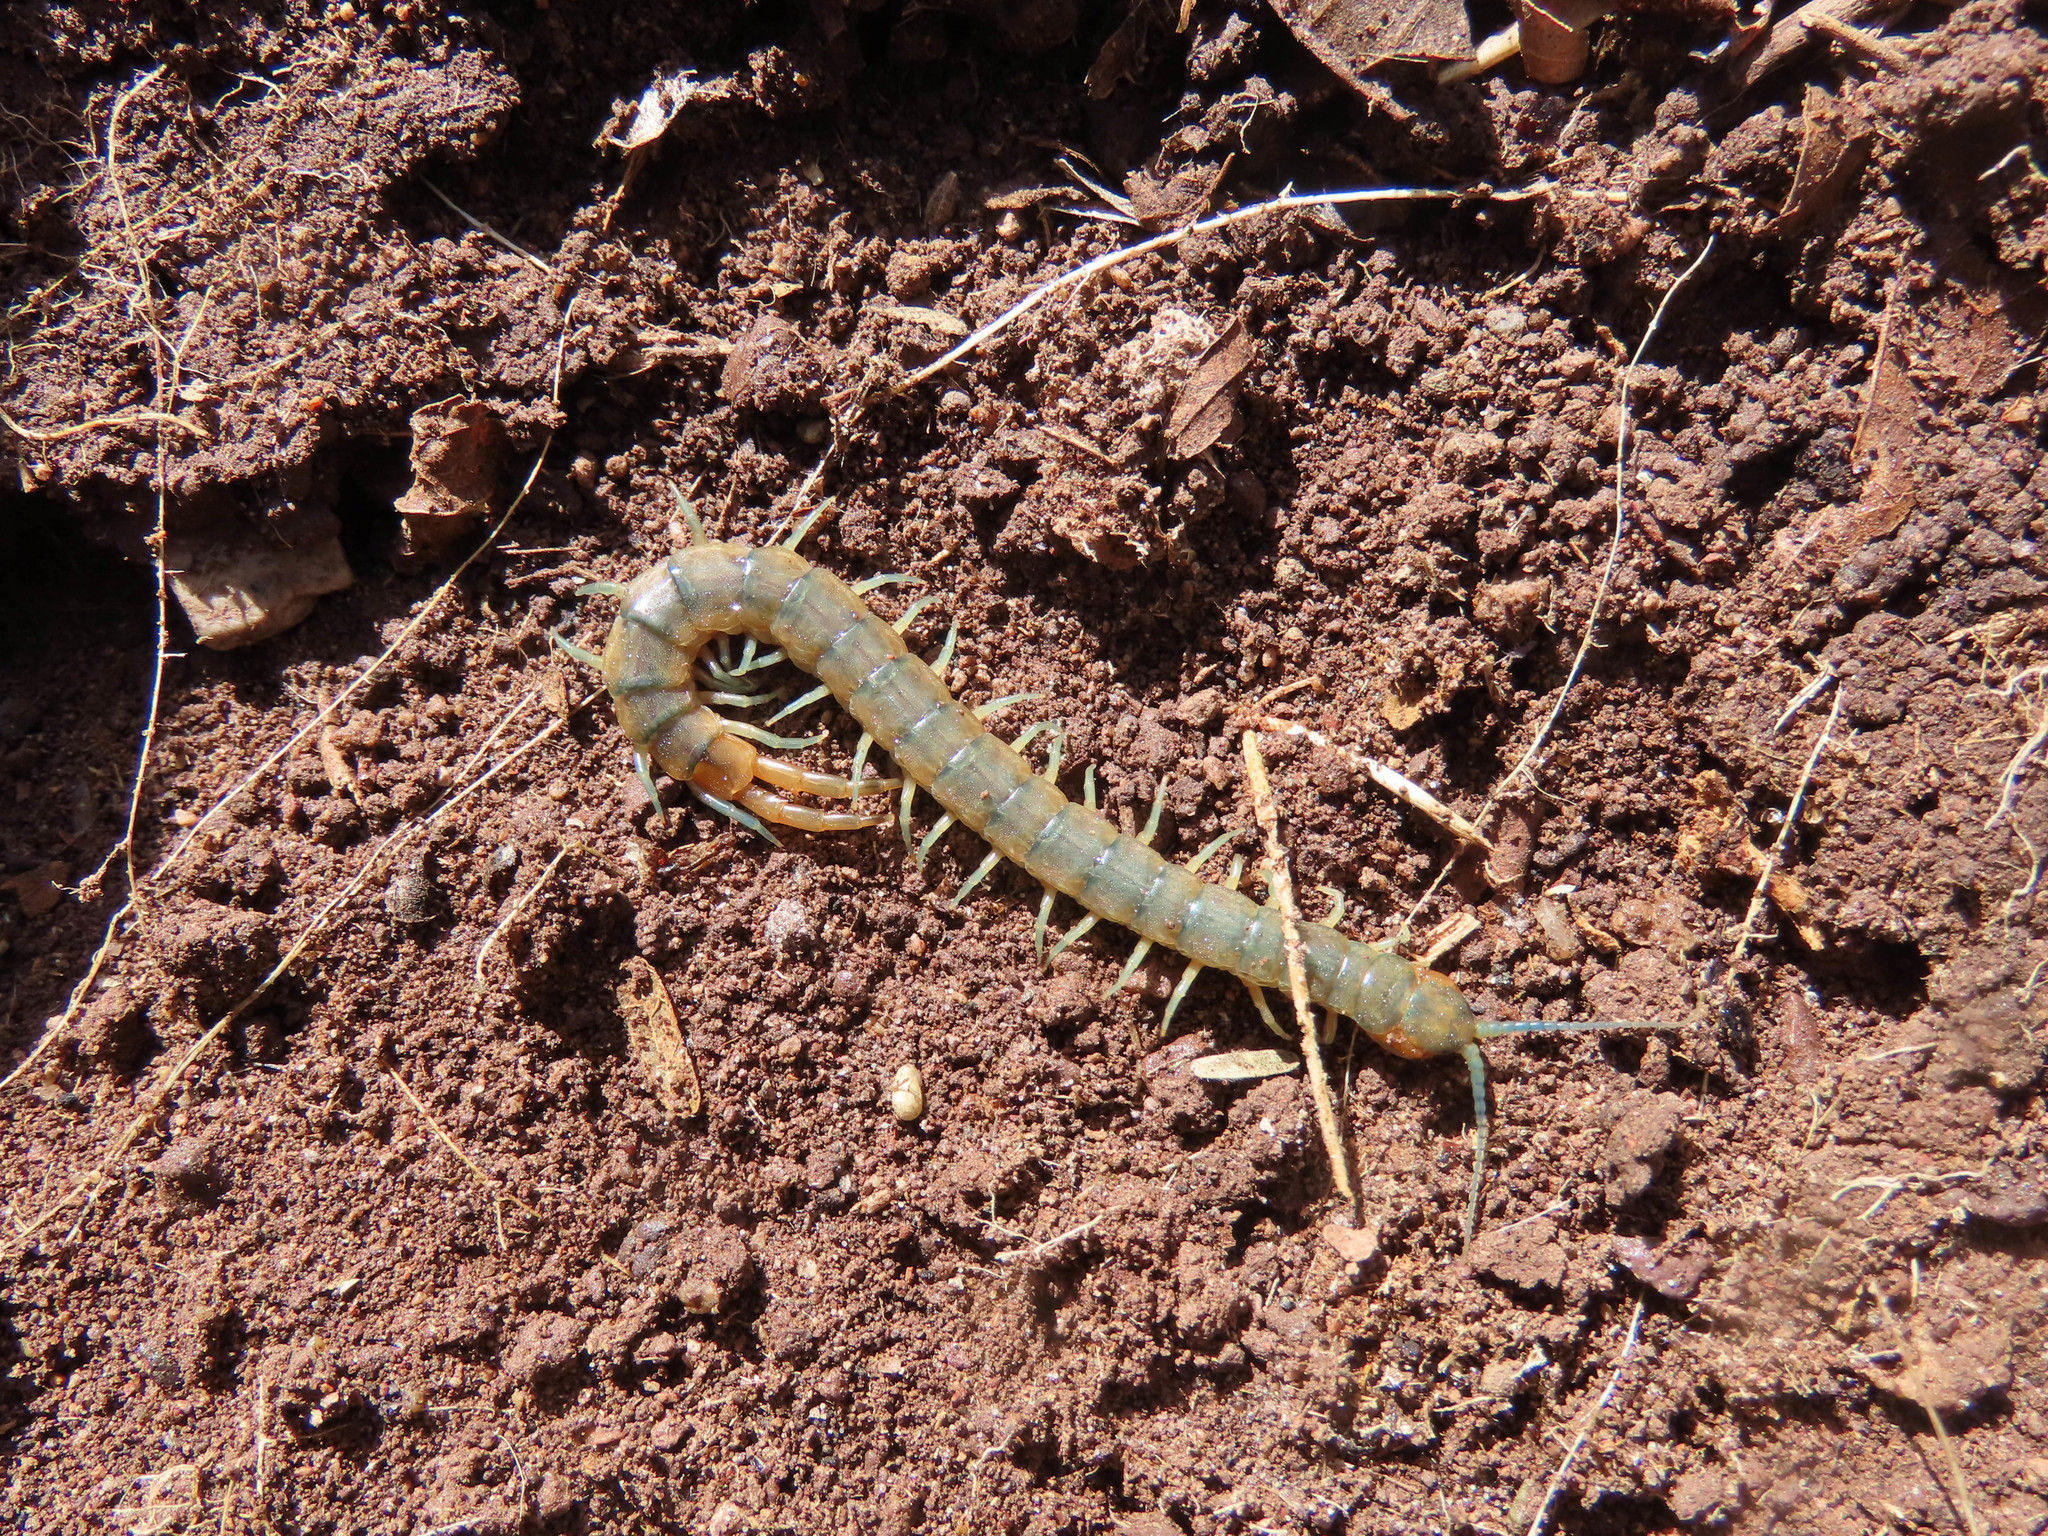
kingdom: Animalia
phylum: Arthropoda
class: Chilopoda
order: Scolopendromorpha
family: Scolopendridae
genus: Scolopendra
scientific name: Scolopendra viridis
